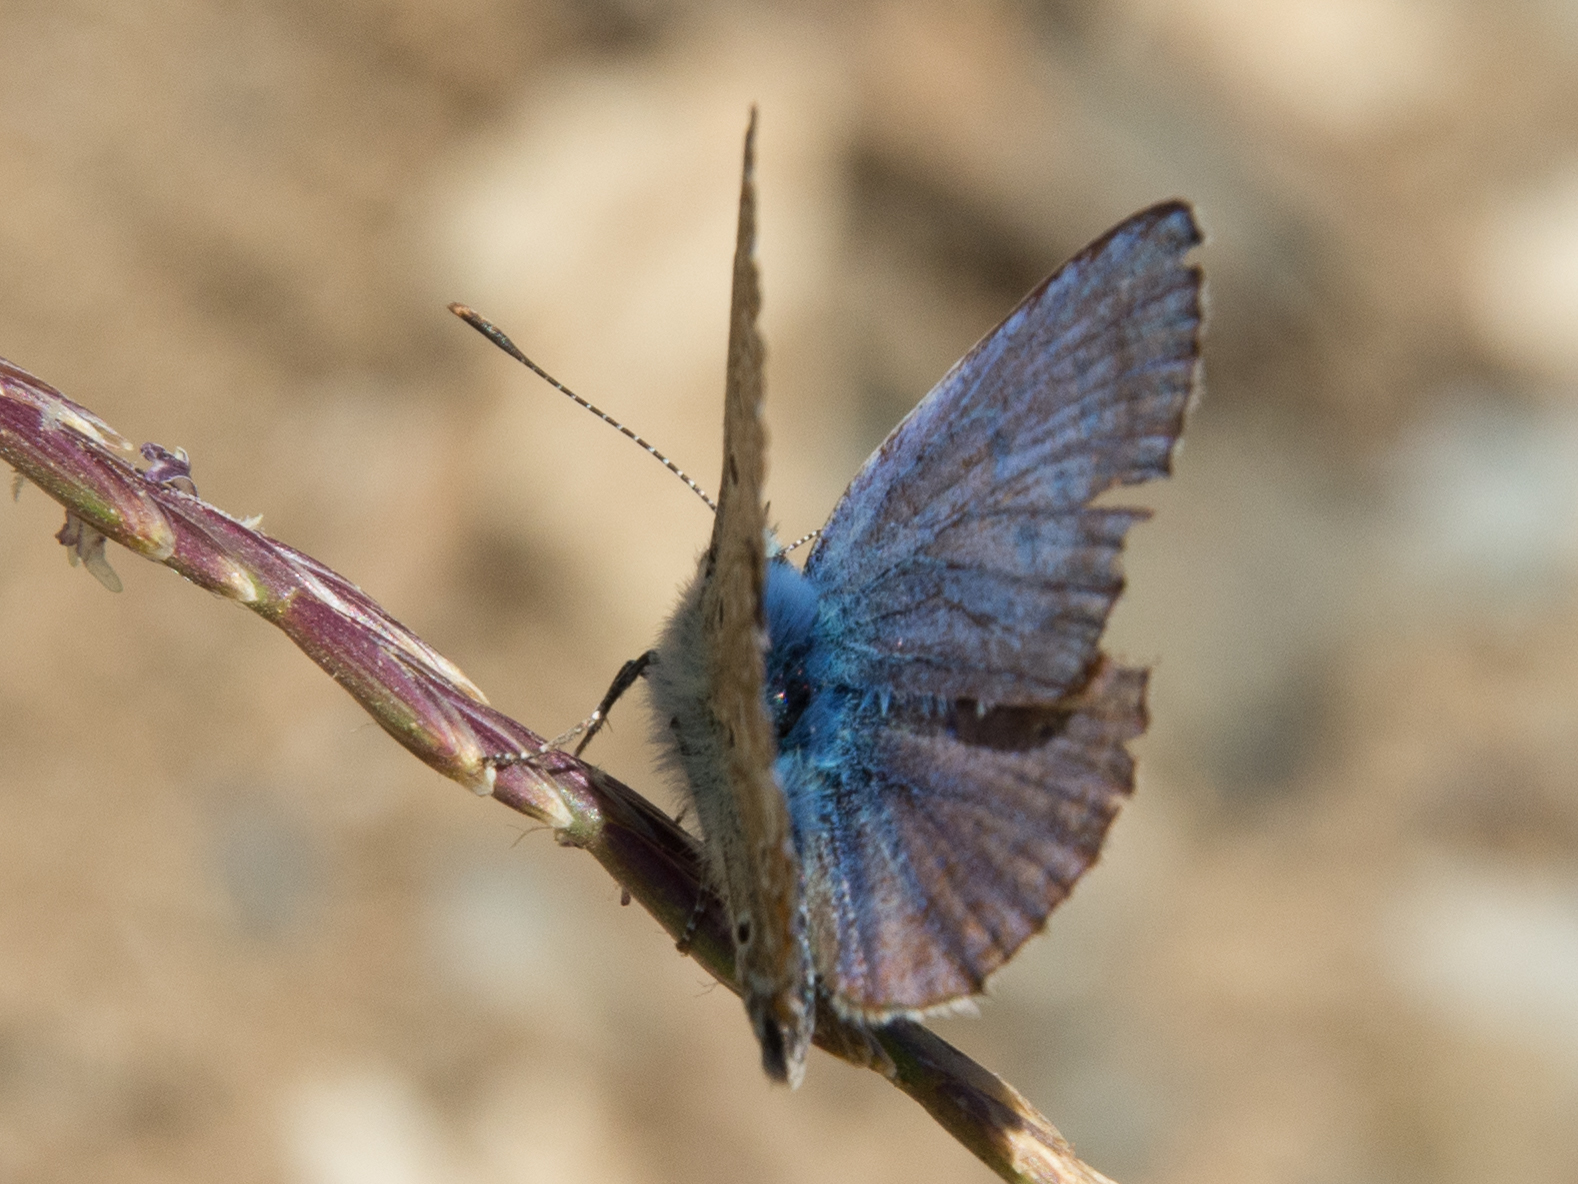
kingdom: Animalia
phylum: Arthropoda
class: Insecta
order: Lepidoptera
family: Lycaenidae
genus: Polyommatus
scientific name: Polyommatus celina
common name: Austaut's blue
